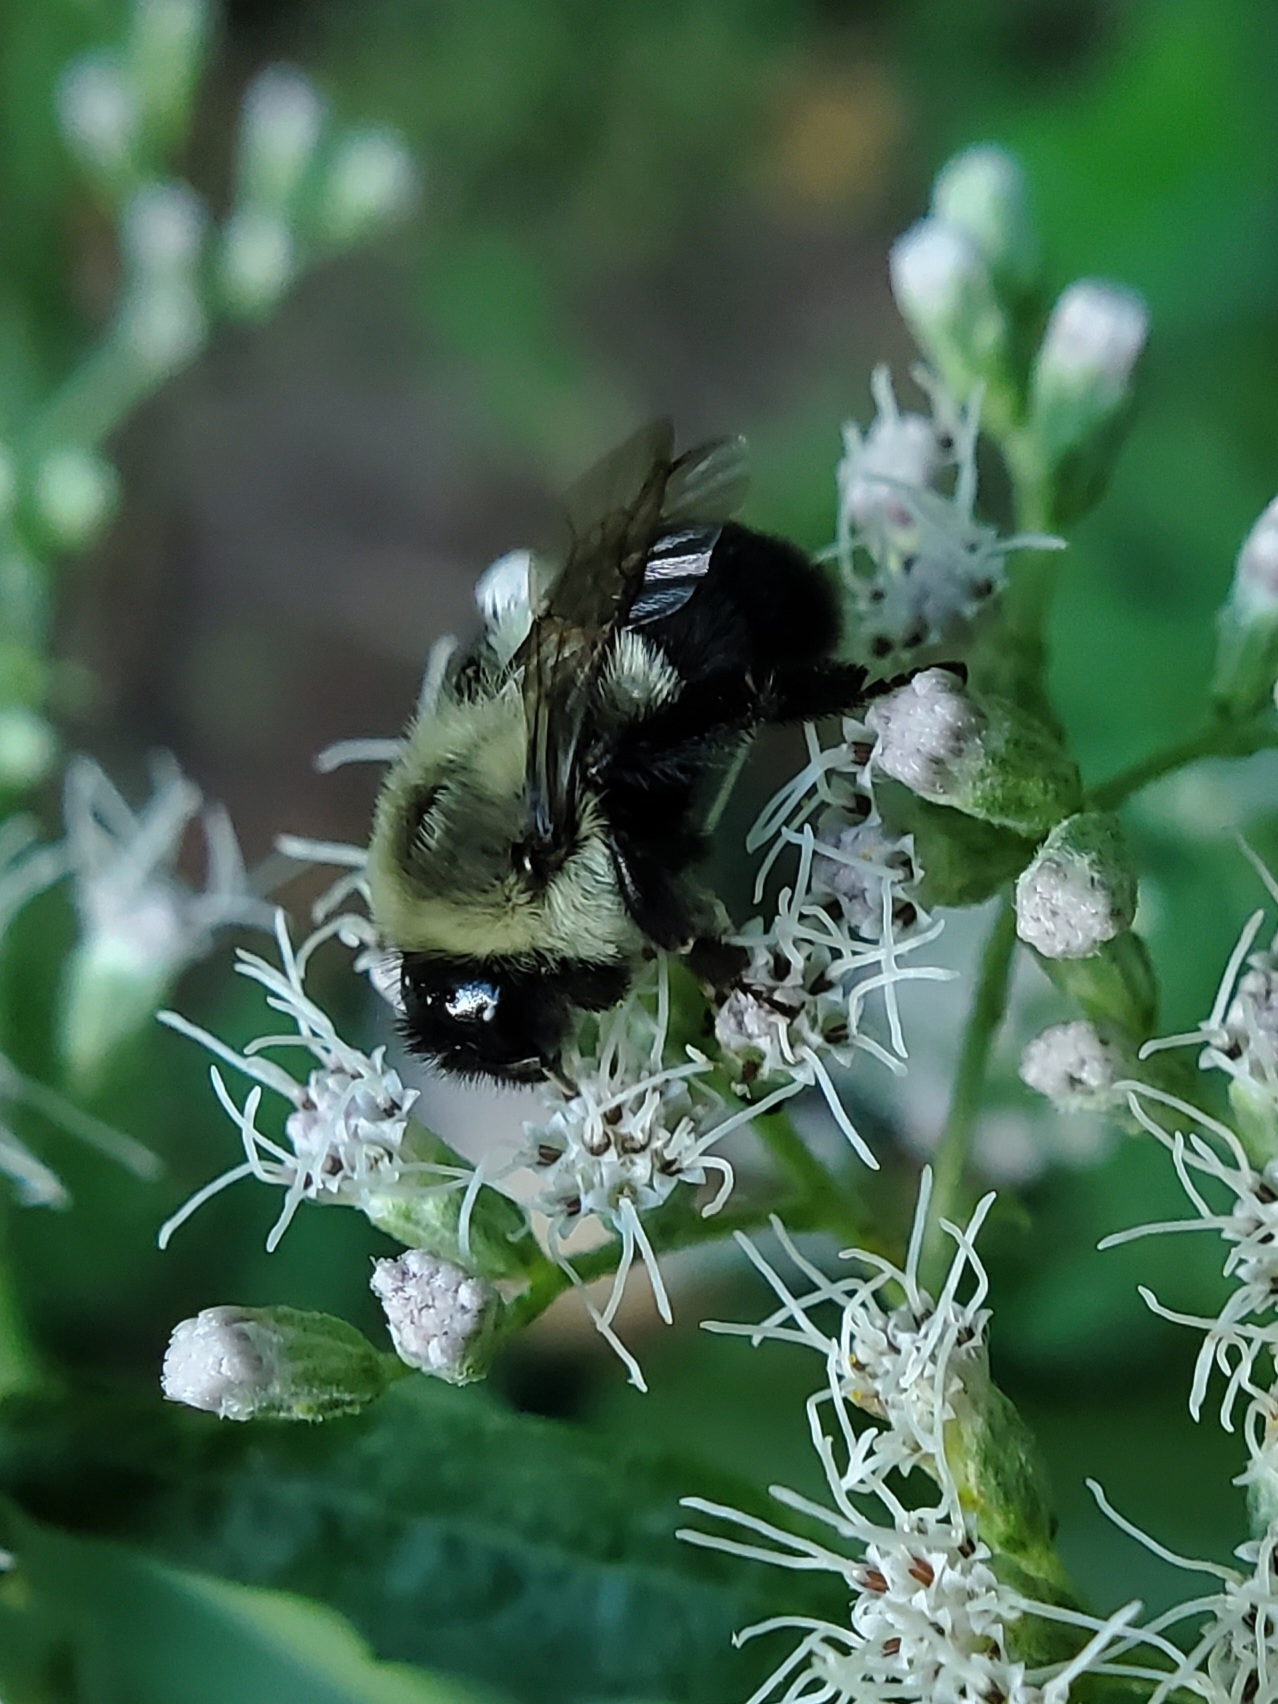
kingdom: Animalia
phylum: Arthropoda
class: Insecta
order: Hymenoptera
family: Apidae
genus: Bombus
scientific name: Bombus impatiens
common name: Common eastern bumble bee
